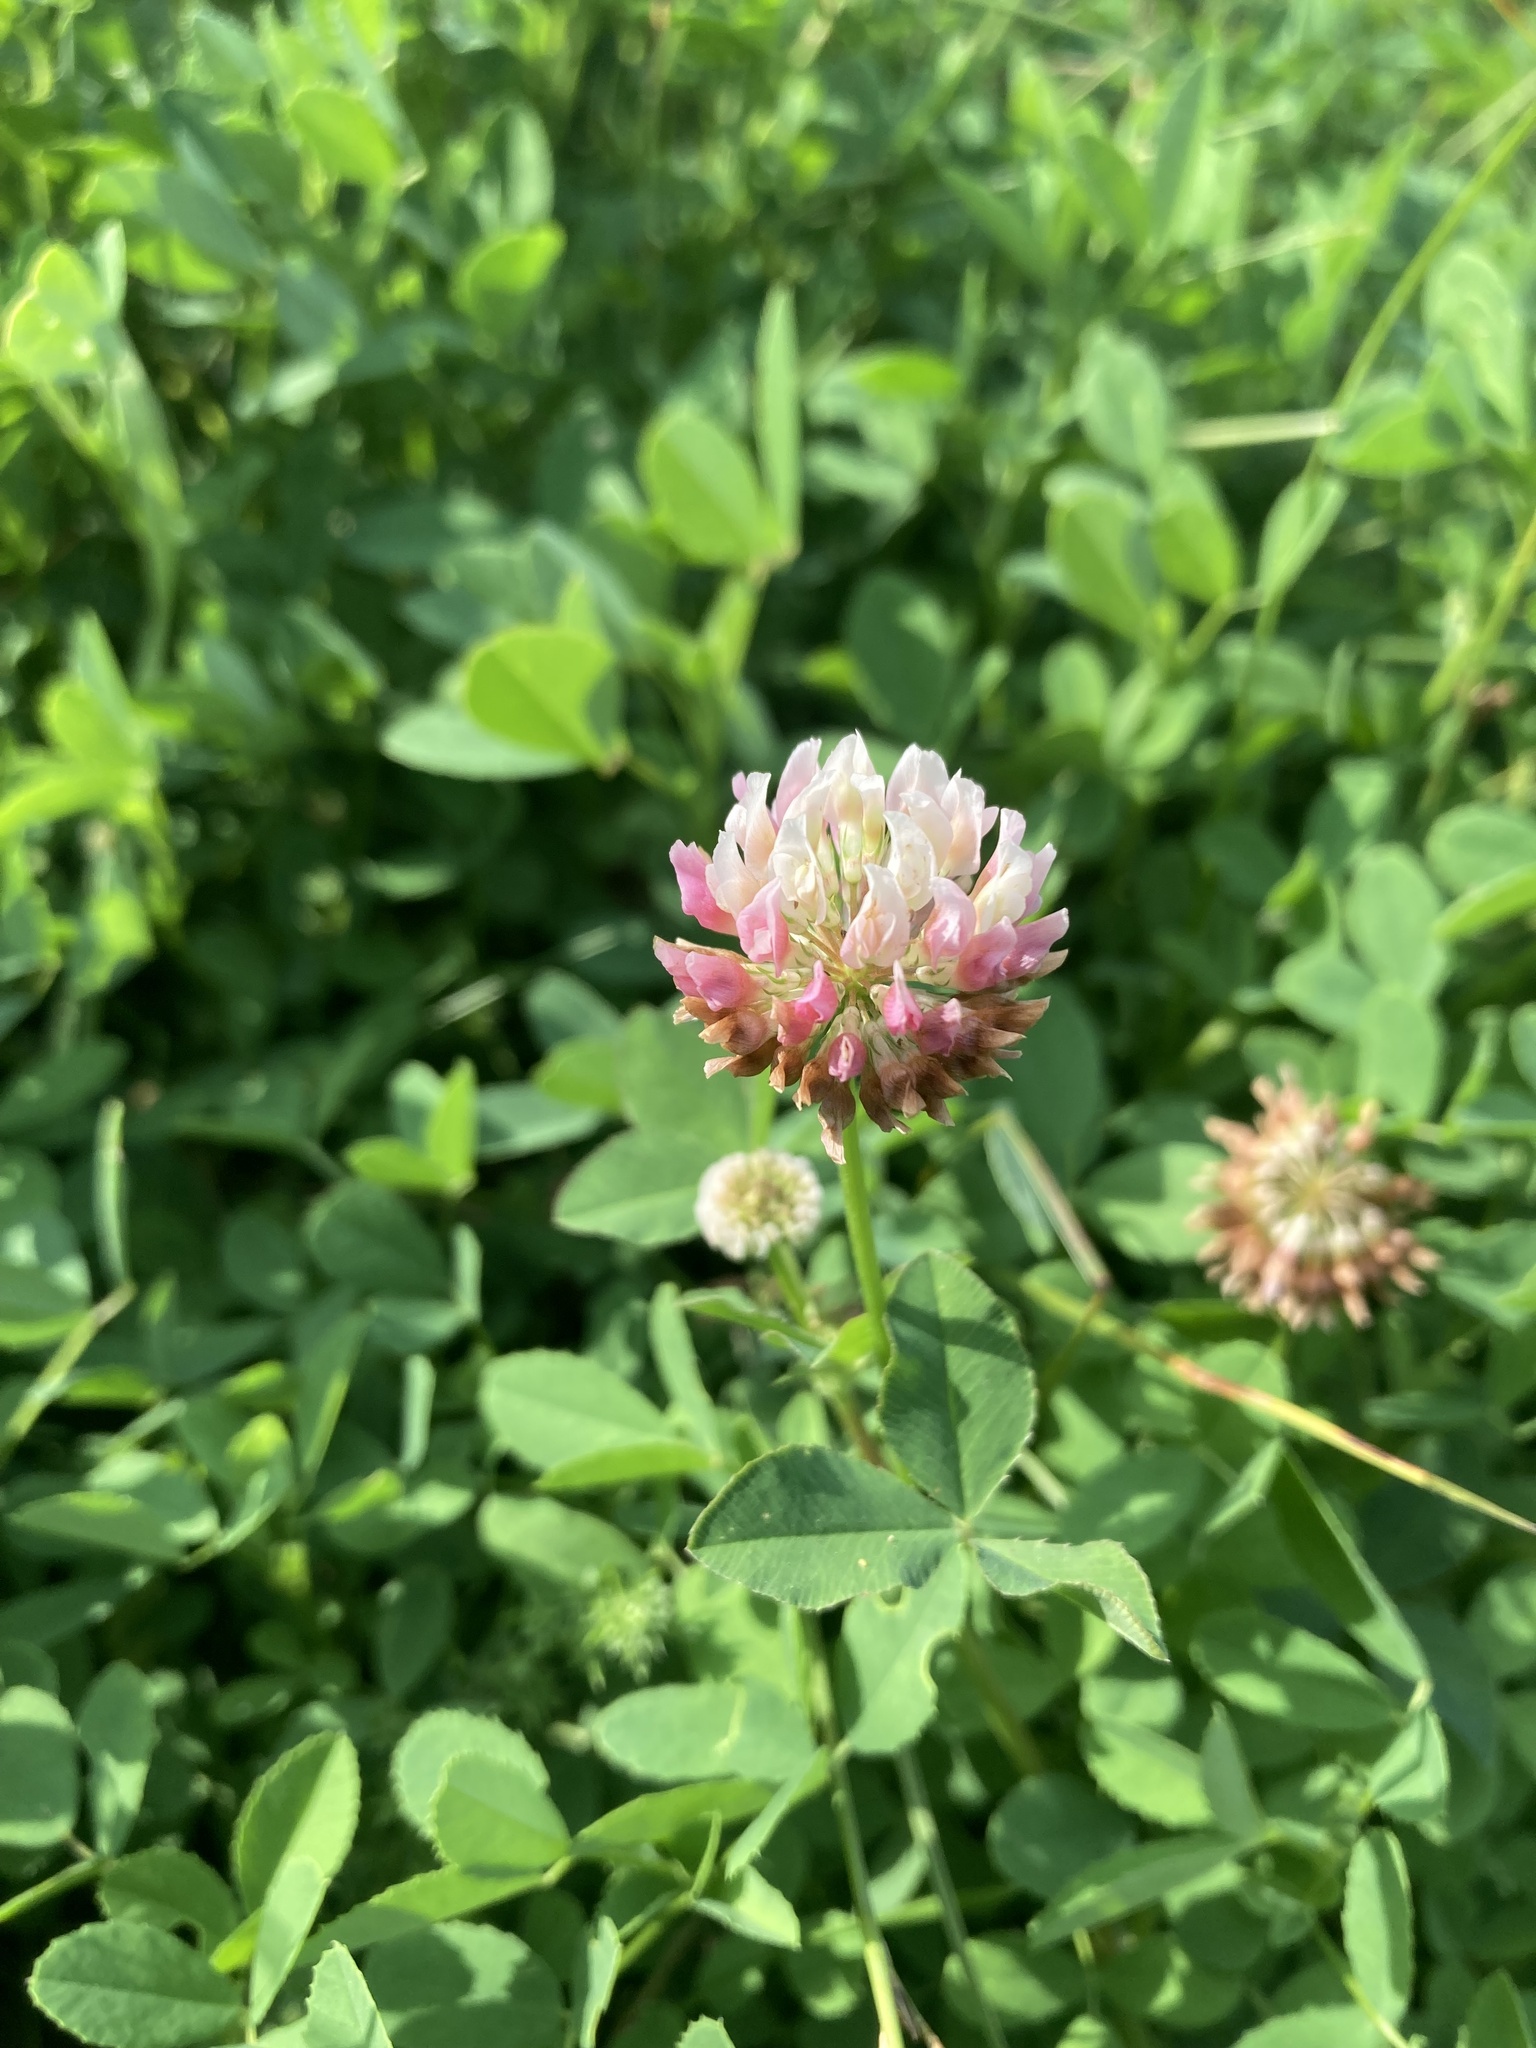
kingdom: Plantae
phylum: Tracheophyta
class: Magnoliopsida
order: Fabales
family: Fabaceae
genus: Trifolium
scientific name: Trifolium hybridum
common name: Alsike clover
